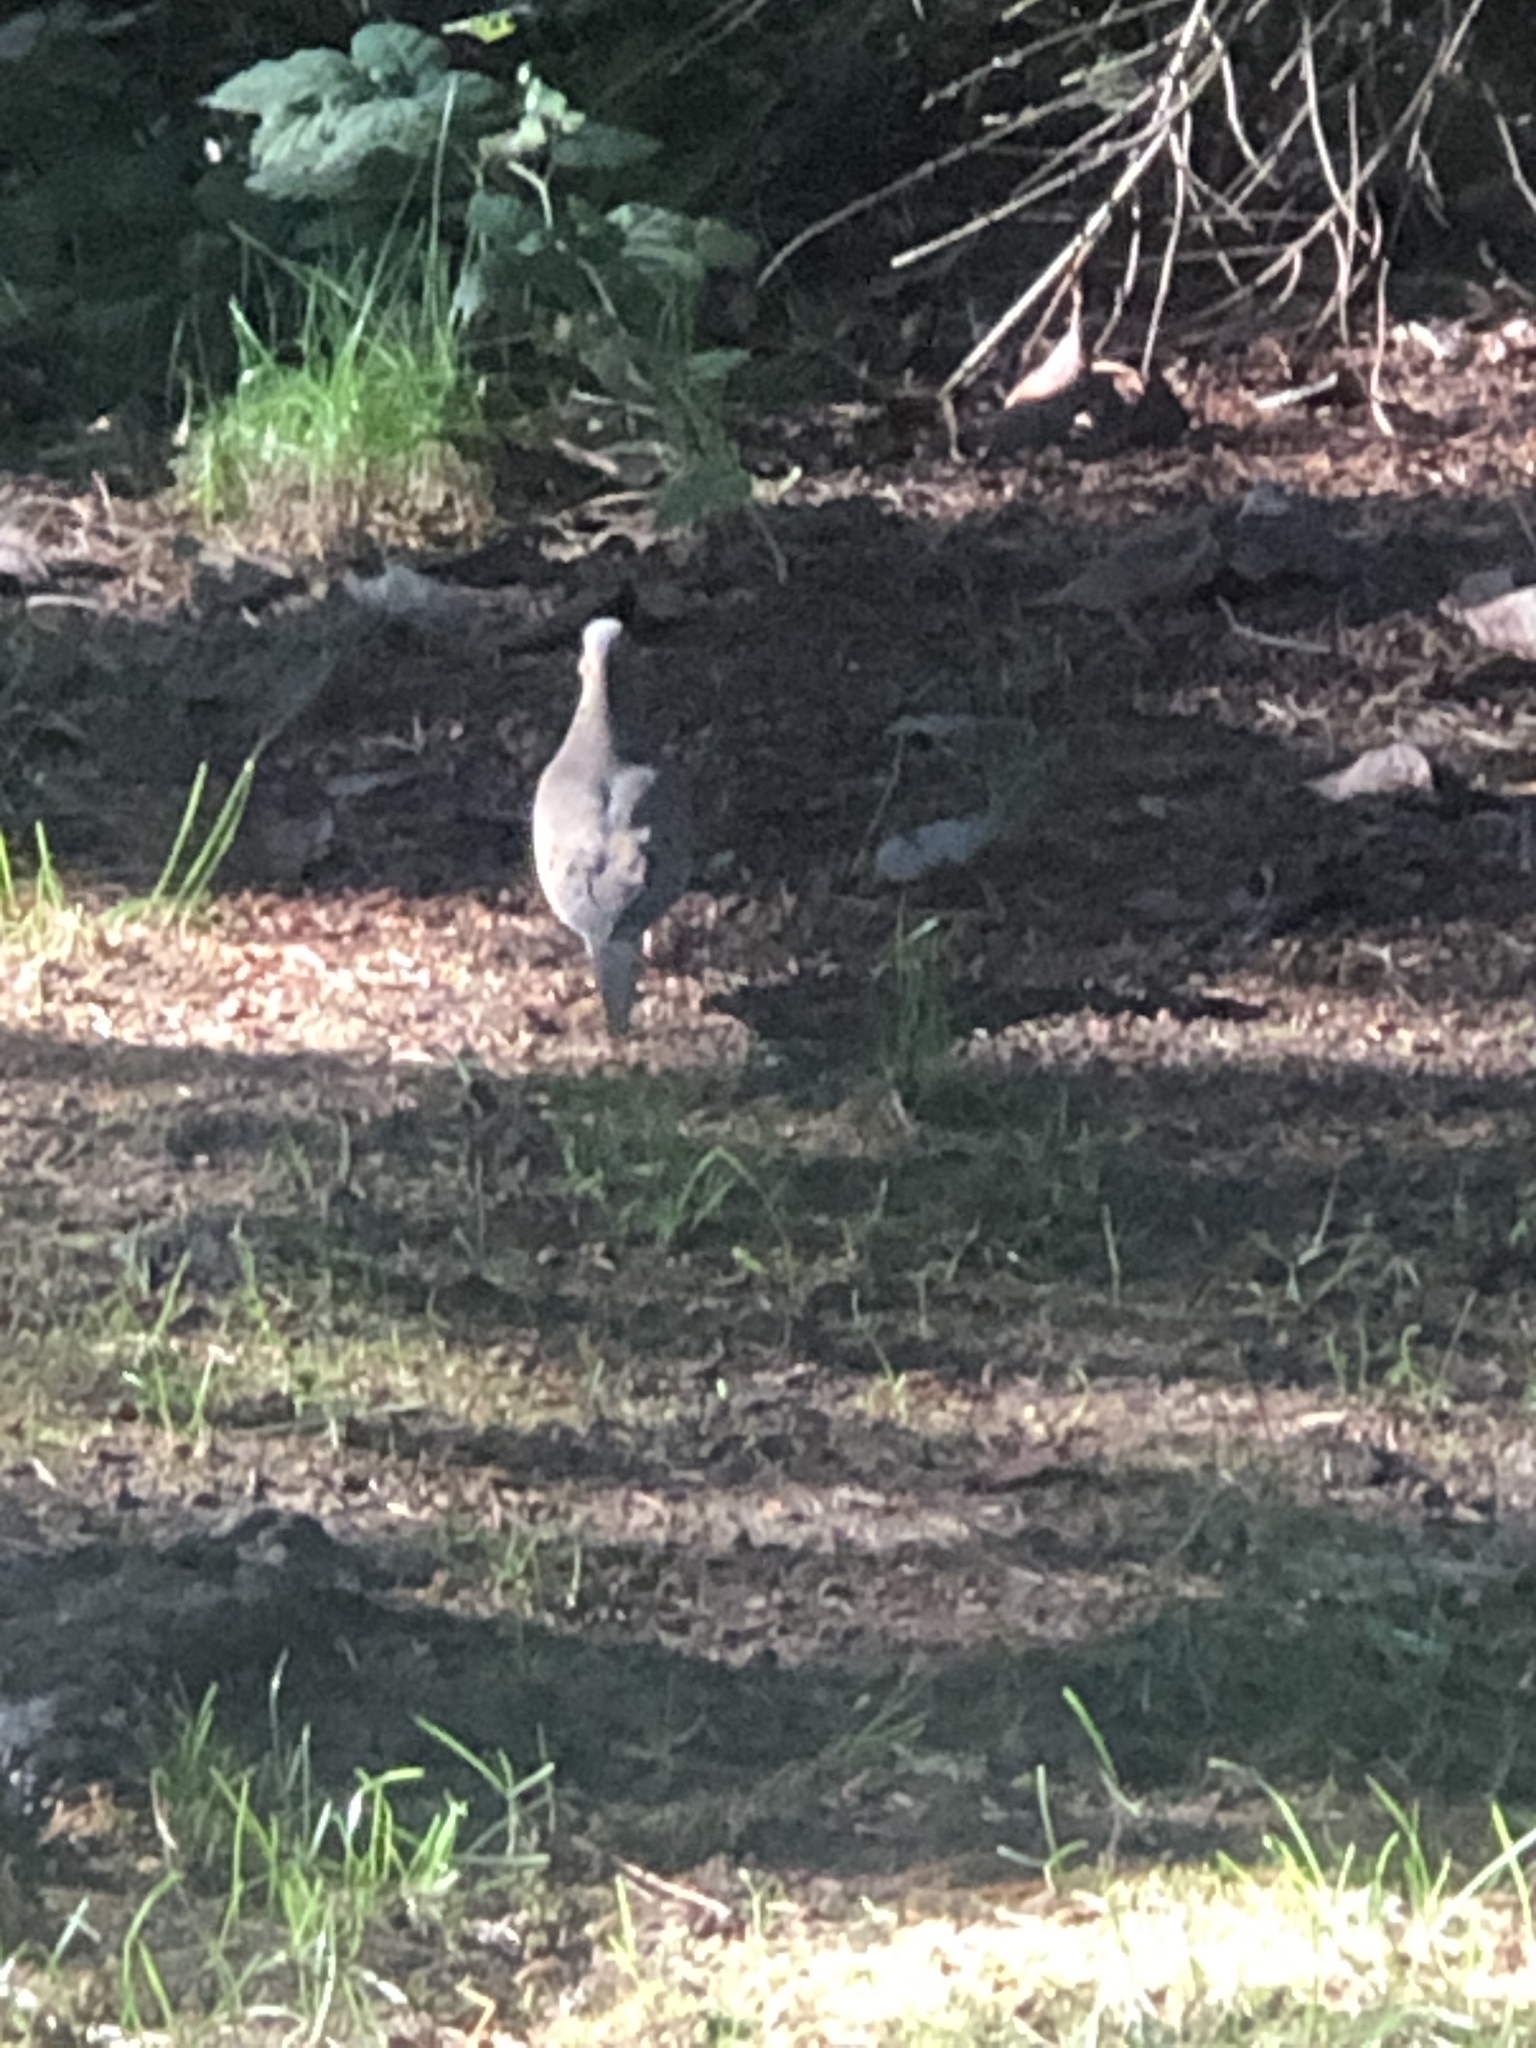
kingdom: Animalia
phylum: Chordata
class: Aves
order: Columbiformes
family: Columbidae
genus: Zenaida
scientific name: Zenaida macroura
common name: Mourning dove
